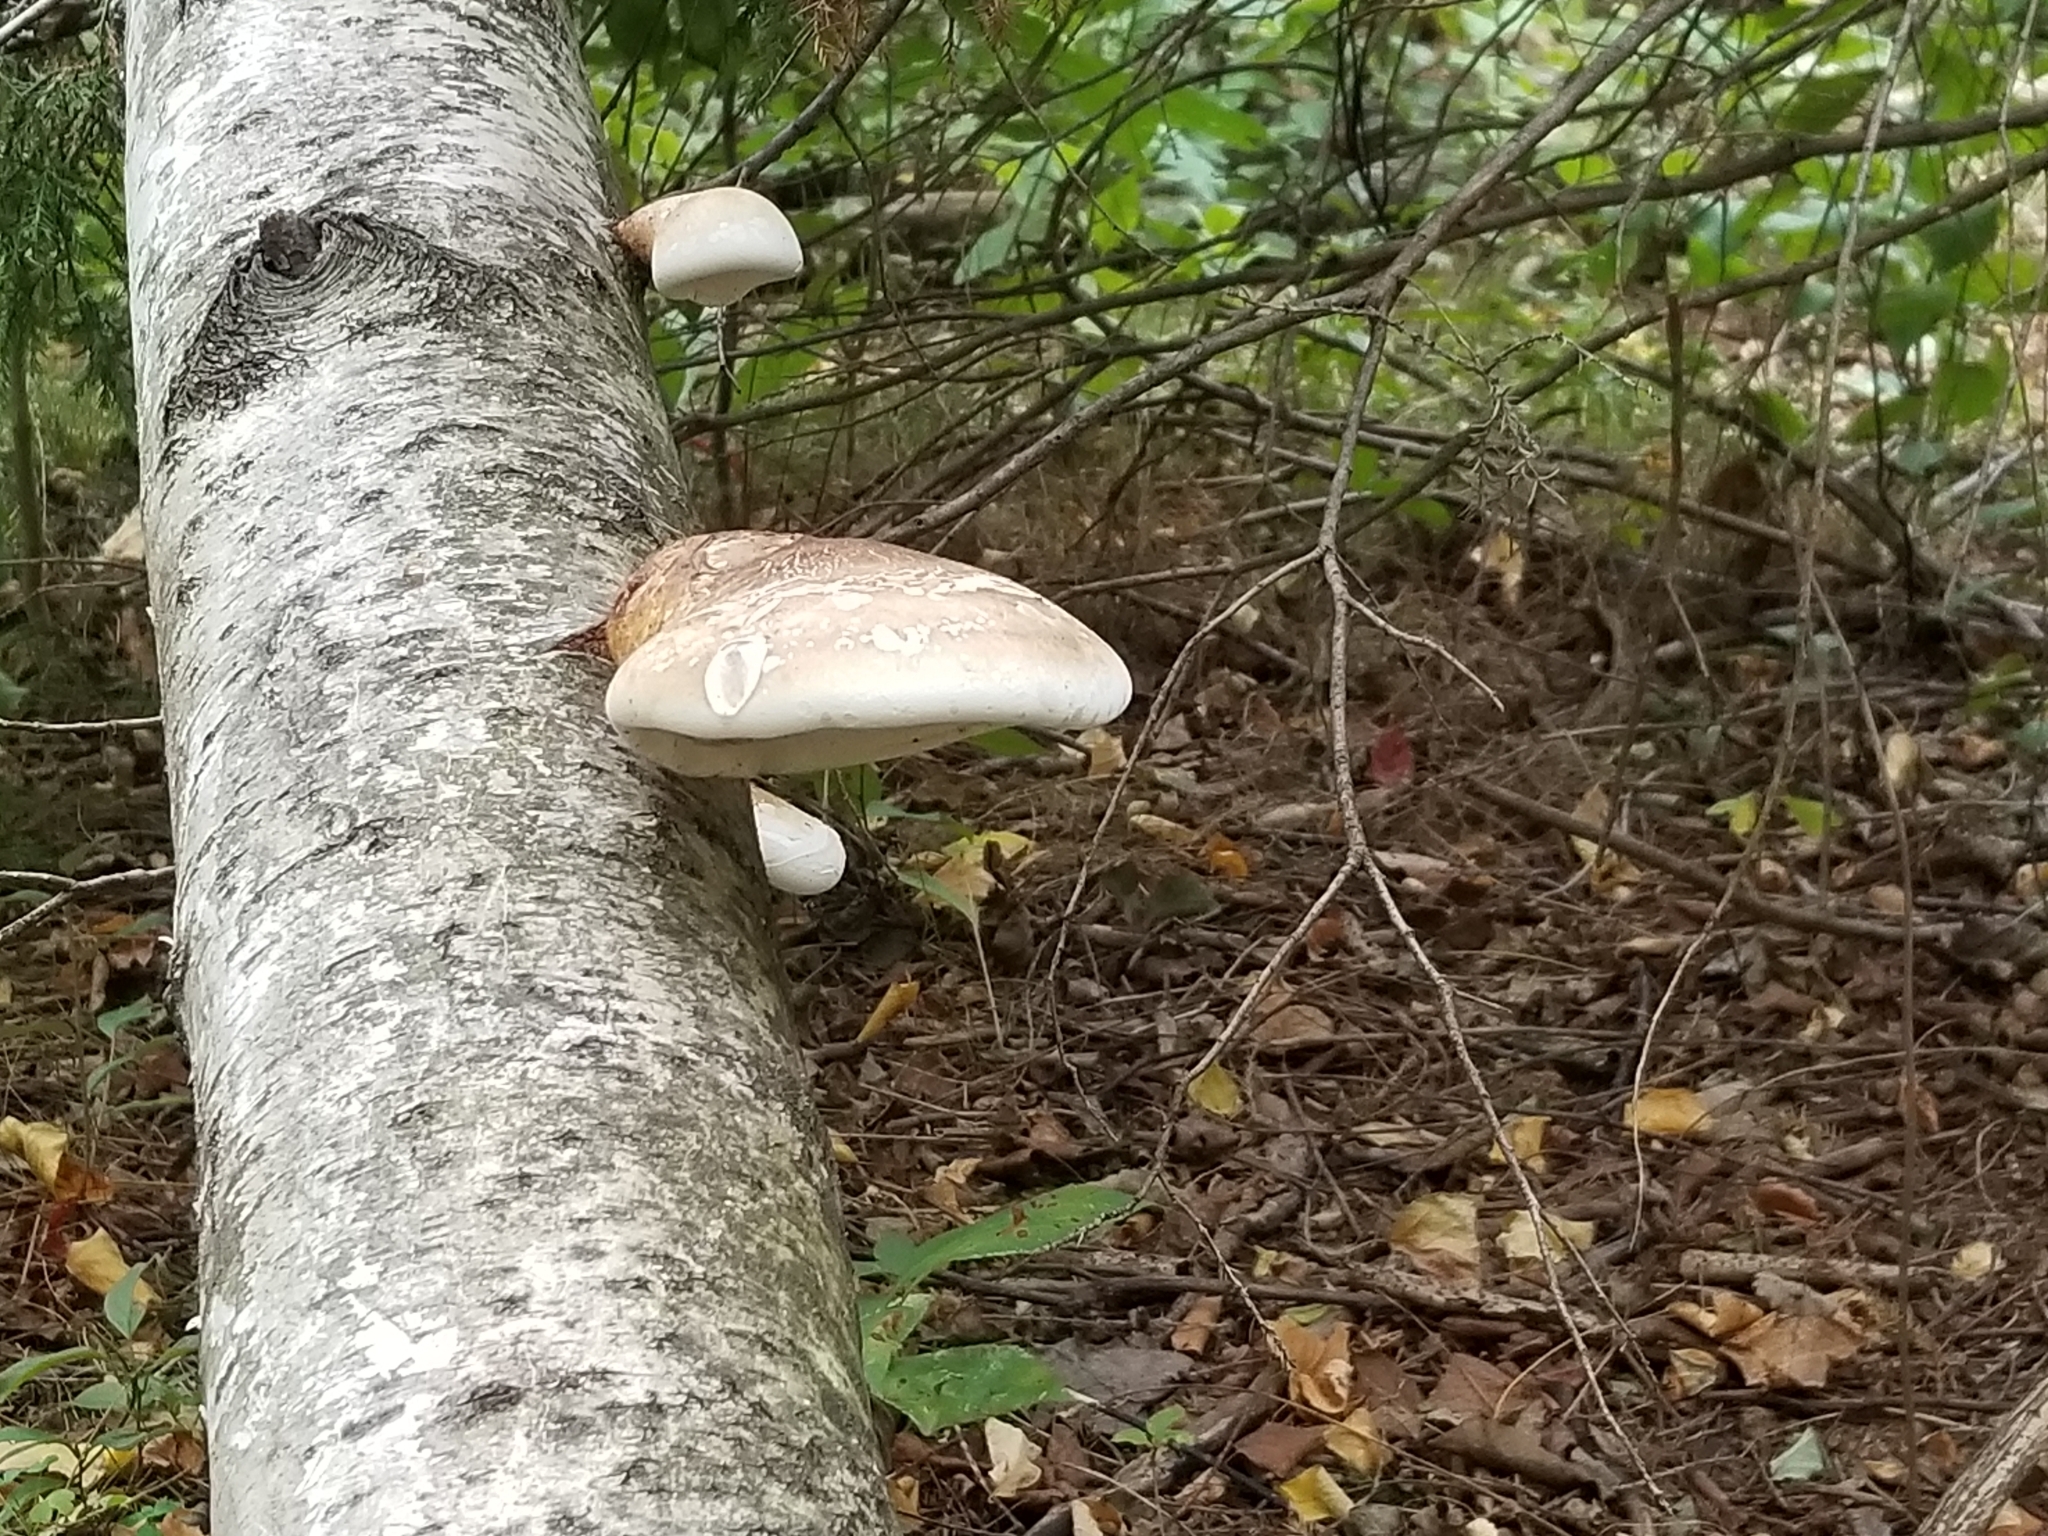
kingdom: Fungi
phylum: Basidiomycota
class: Agaricomycetes
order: Polyporales
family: Fomitopsidaceae
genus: Fomitopsis
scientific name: Fomitopsis betulina
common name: Birch polypore
